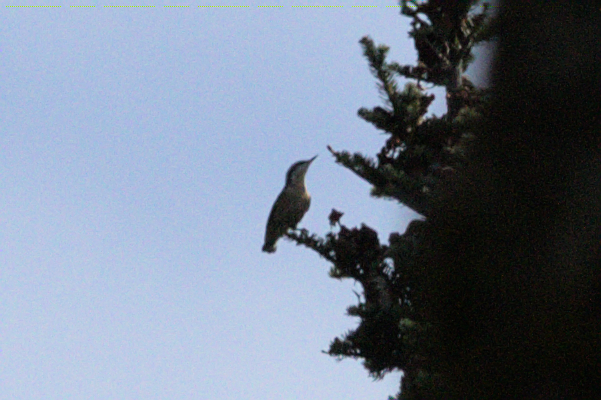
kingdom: Animalia
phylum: Chordata
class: Aves
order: Passeriformes
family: Sittidae
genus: Sitta
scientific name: Sitta canadensis
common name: Red-breasted nuthatch
